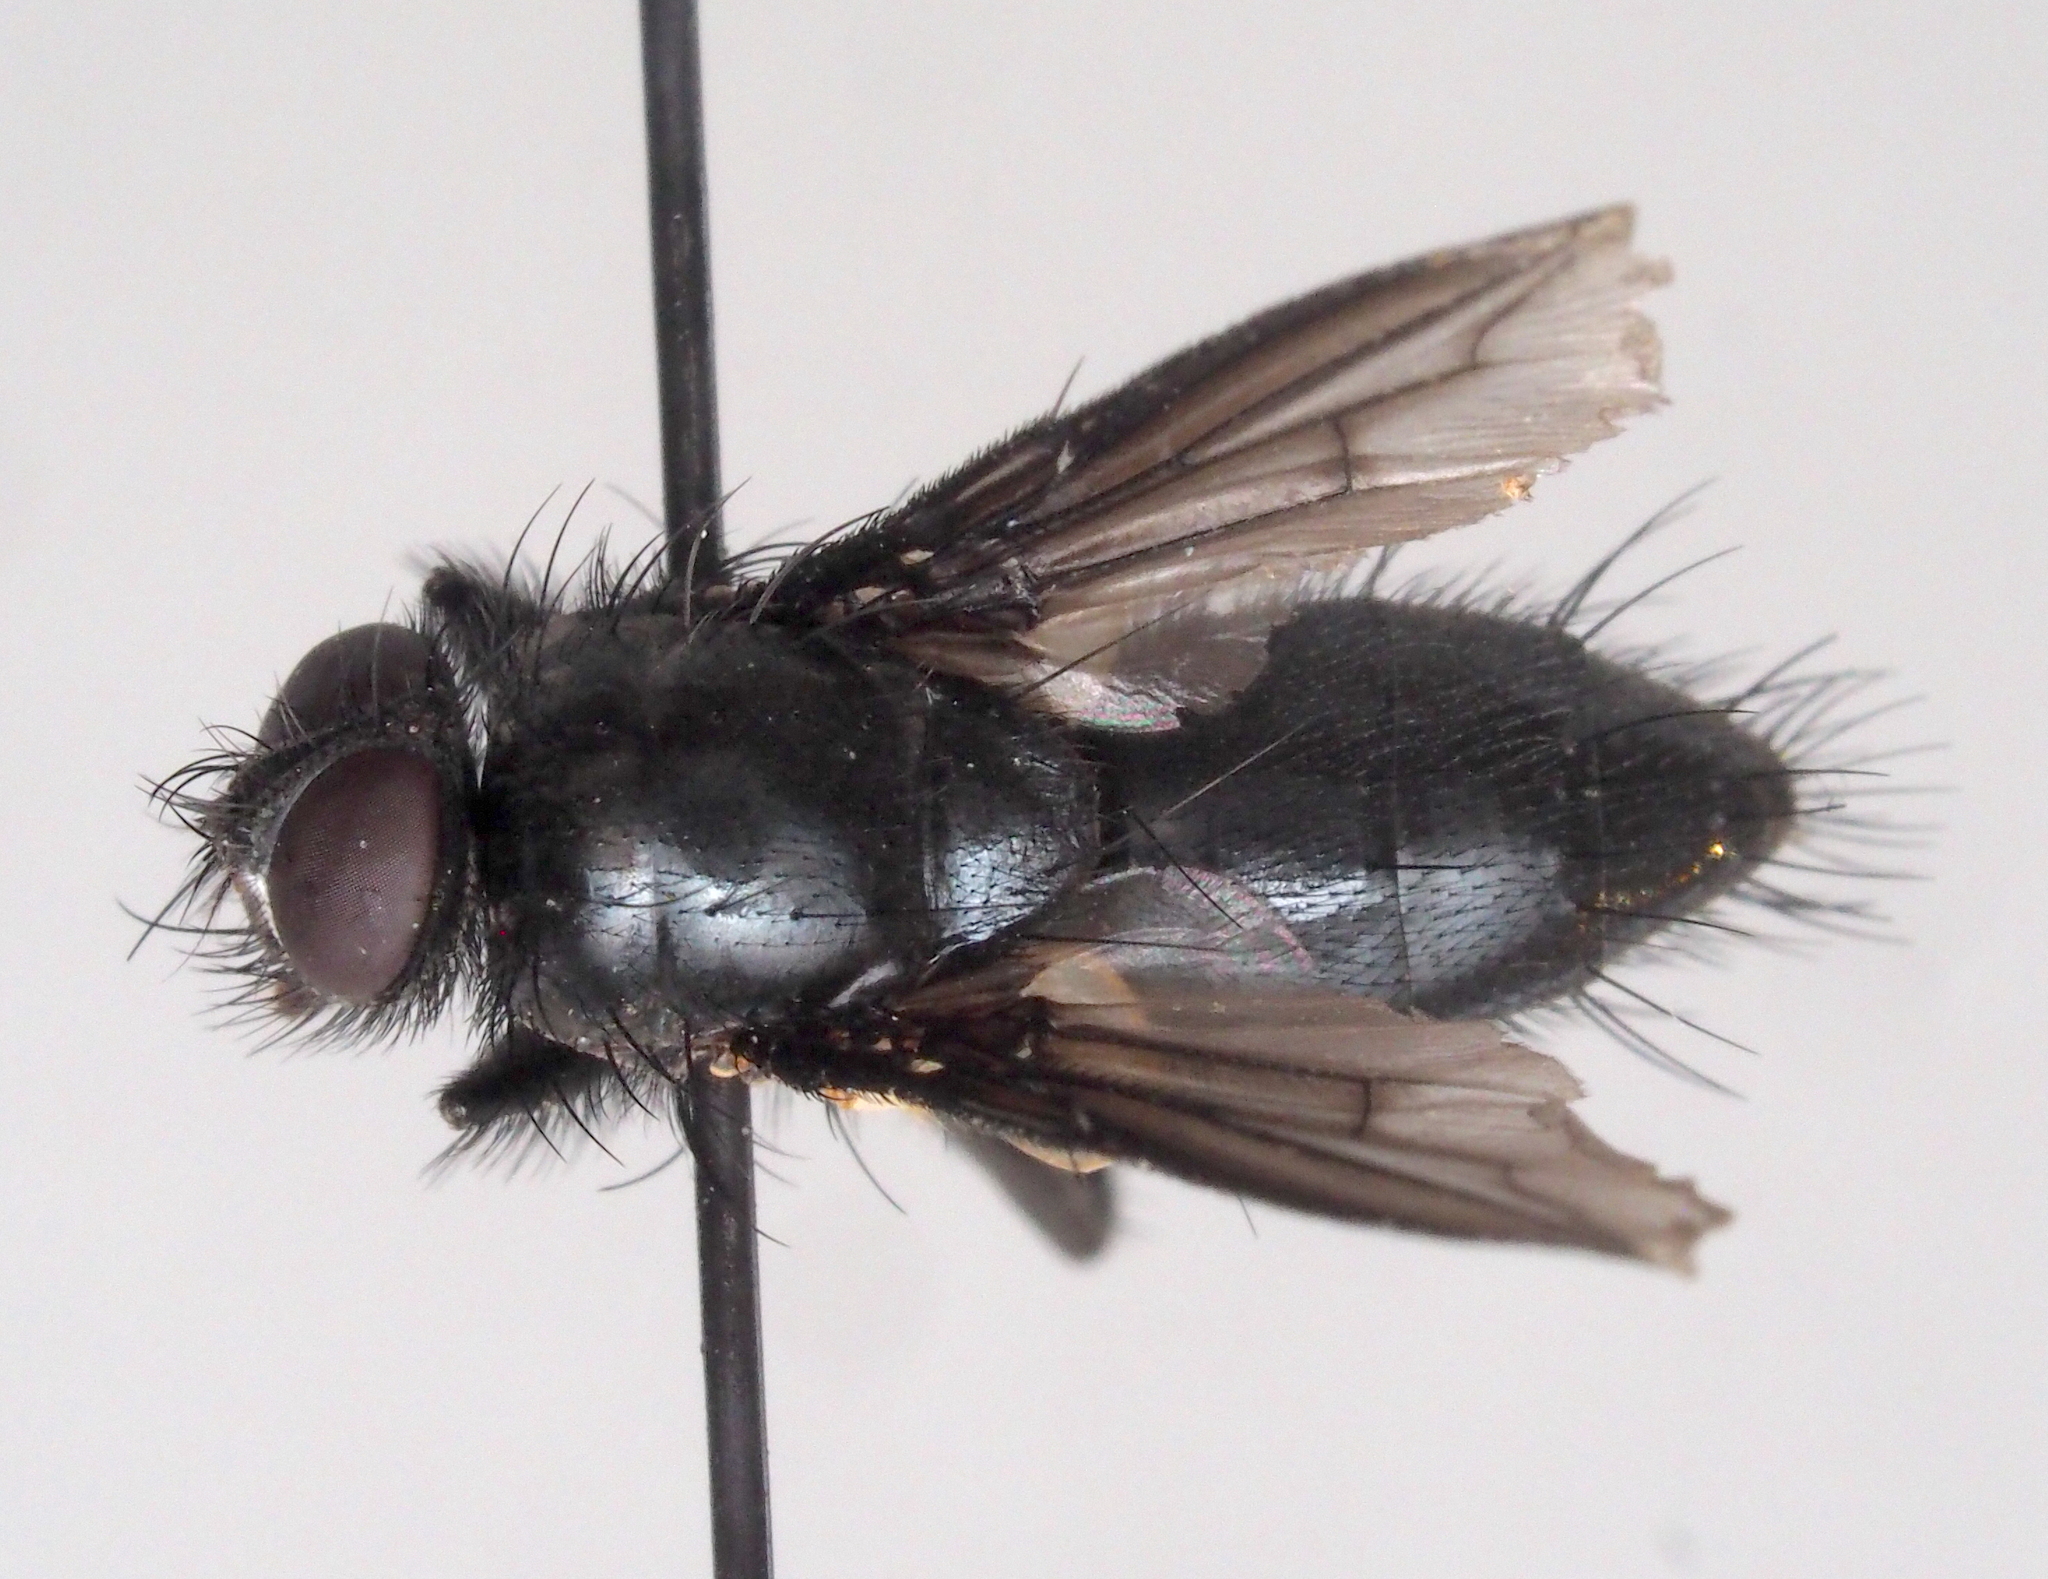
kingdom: Animalia
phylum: Arthropoda
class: Insecta
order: Diptera
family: Sarcophagidae
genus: Nyctia
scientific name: Nyctia halterata
